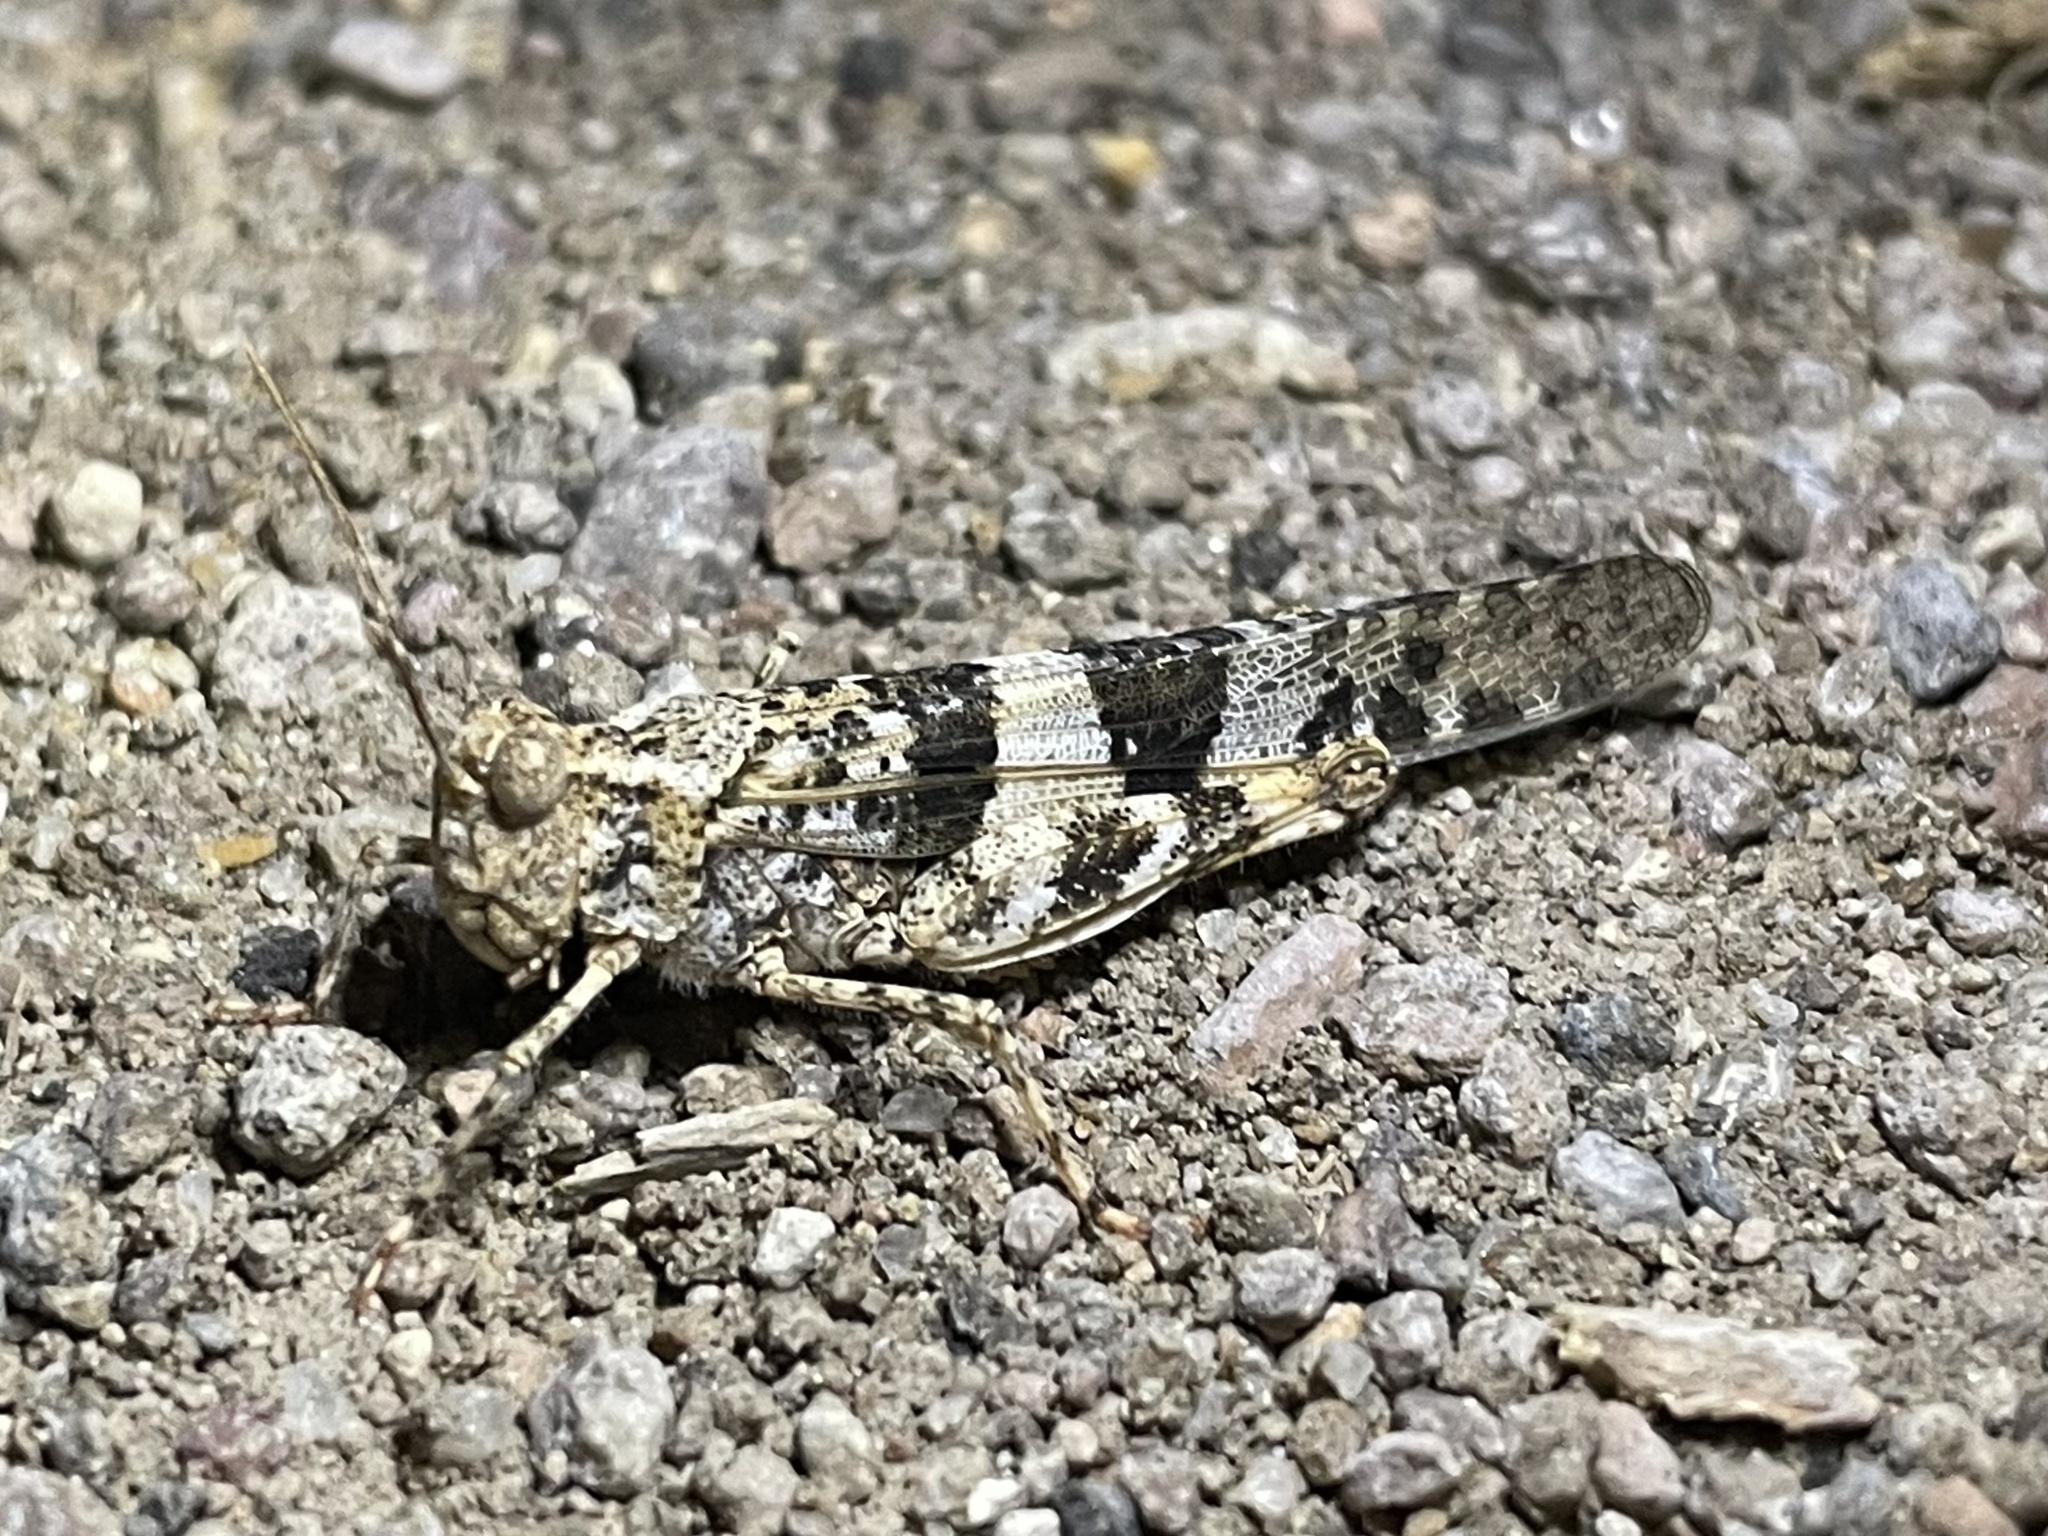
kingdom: Animalia
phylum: Arthropoda
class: Insecta
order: Orthoptera
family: Acrididae
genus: Trimerotropis
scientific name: Trimerotropis pallidipennis
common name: Pallid-winged grasshopper
